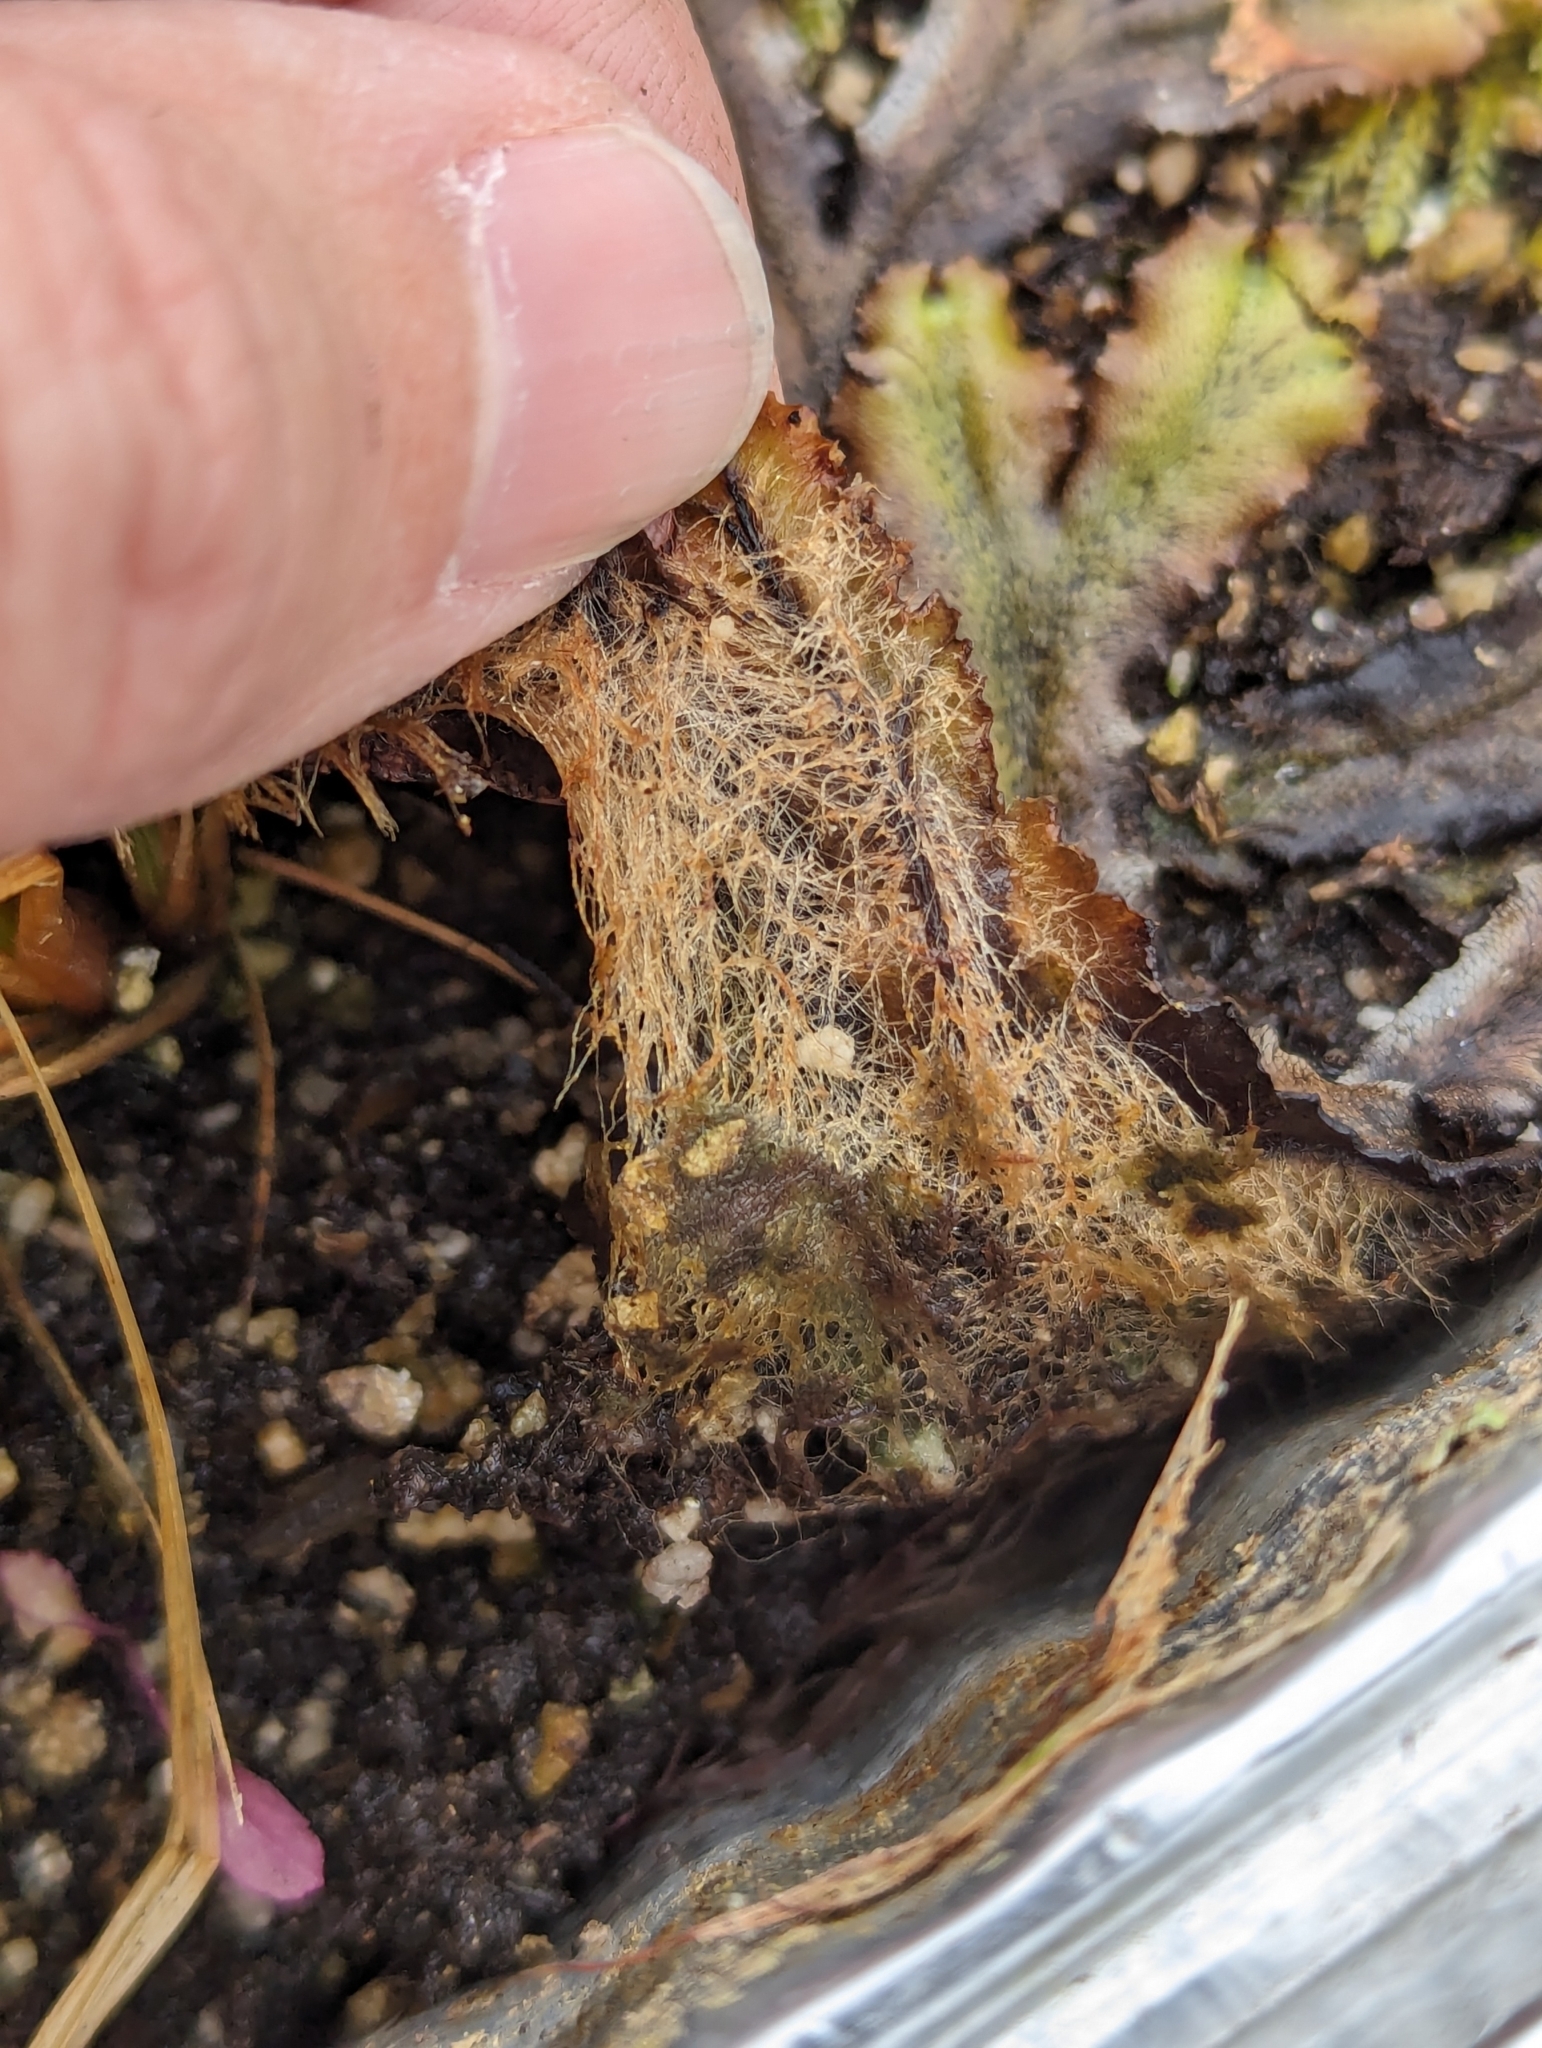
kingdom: Plantae
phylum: Marchantiophyta
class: Marchantiopsida
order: Marchantiales
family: Marchantiaceae
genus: Marchantia
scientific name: Marchantia polymorpha
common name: Common liverwort
